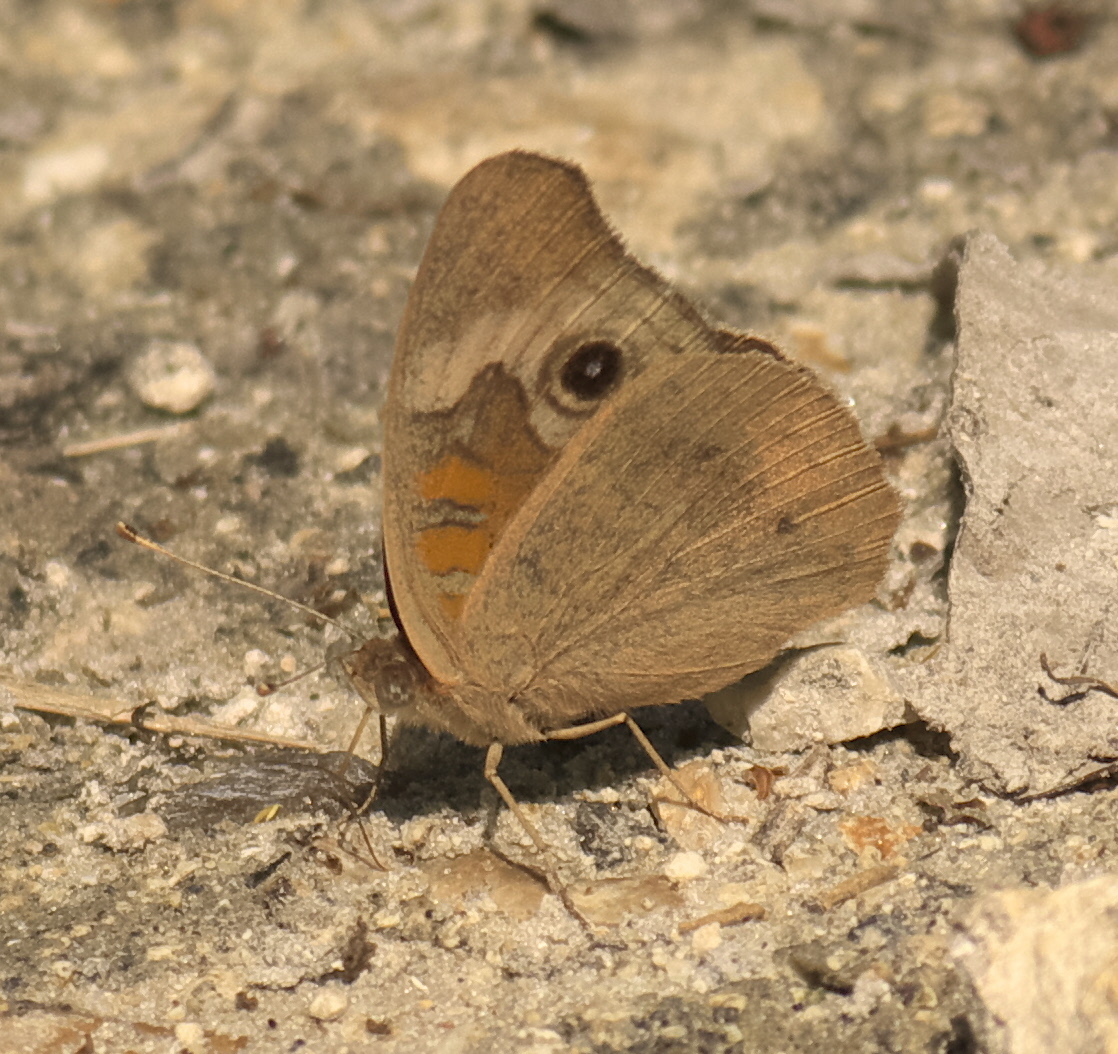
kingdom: Animalia
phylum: Arthropoda
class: Insecta
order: Lepidoptera
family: Nymphalidae
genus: Junonia
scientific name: Junonia coenia
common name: Common buckeye
